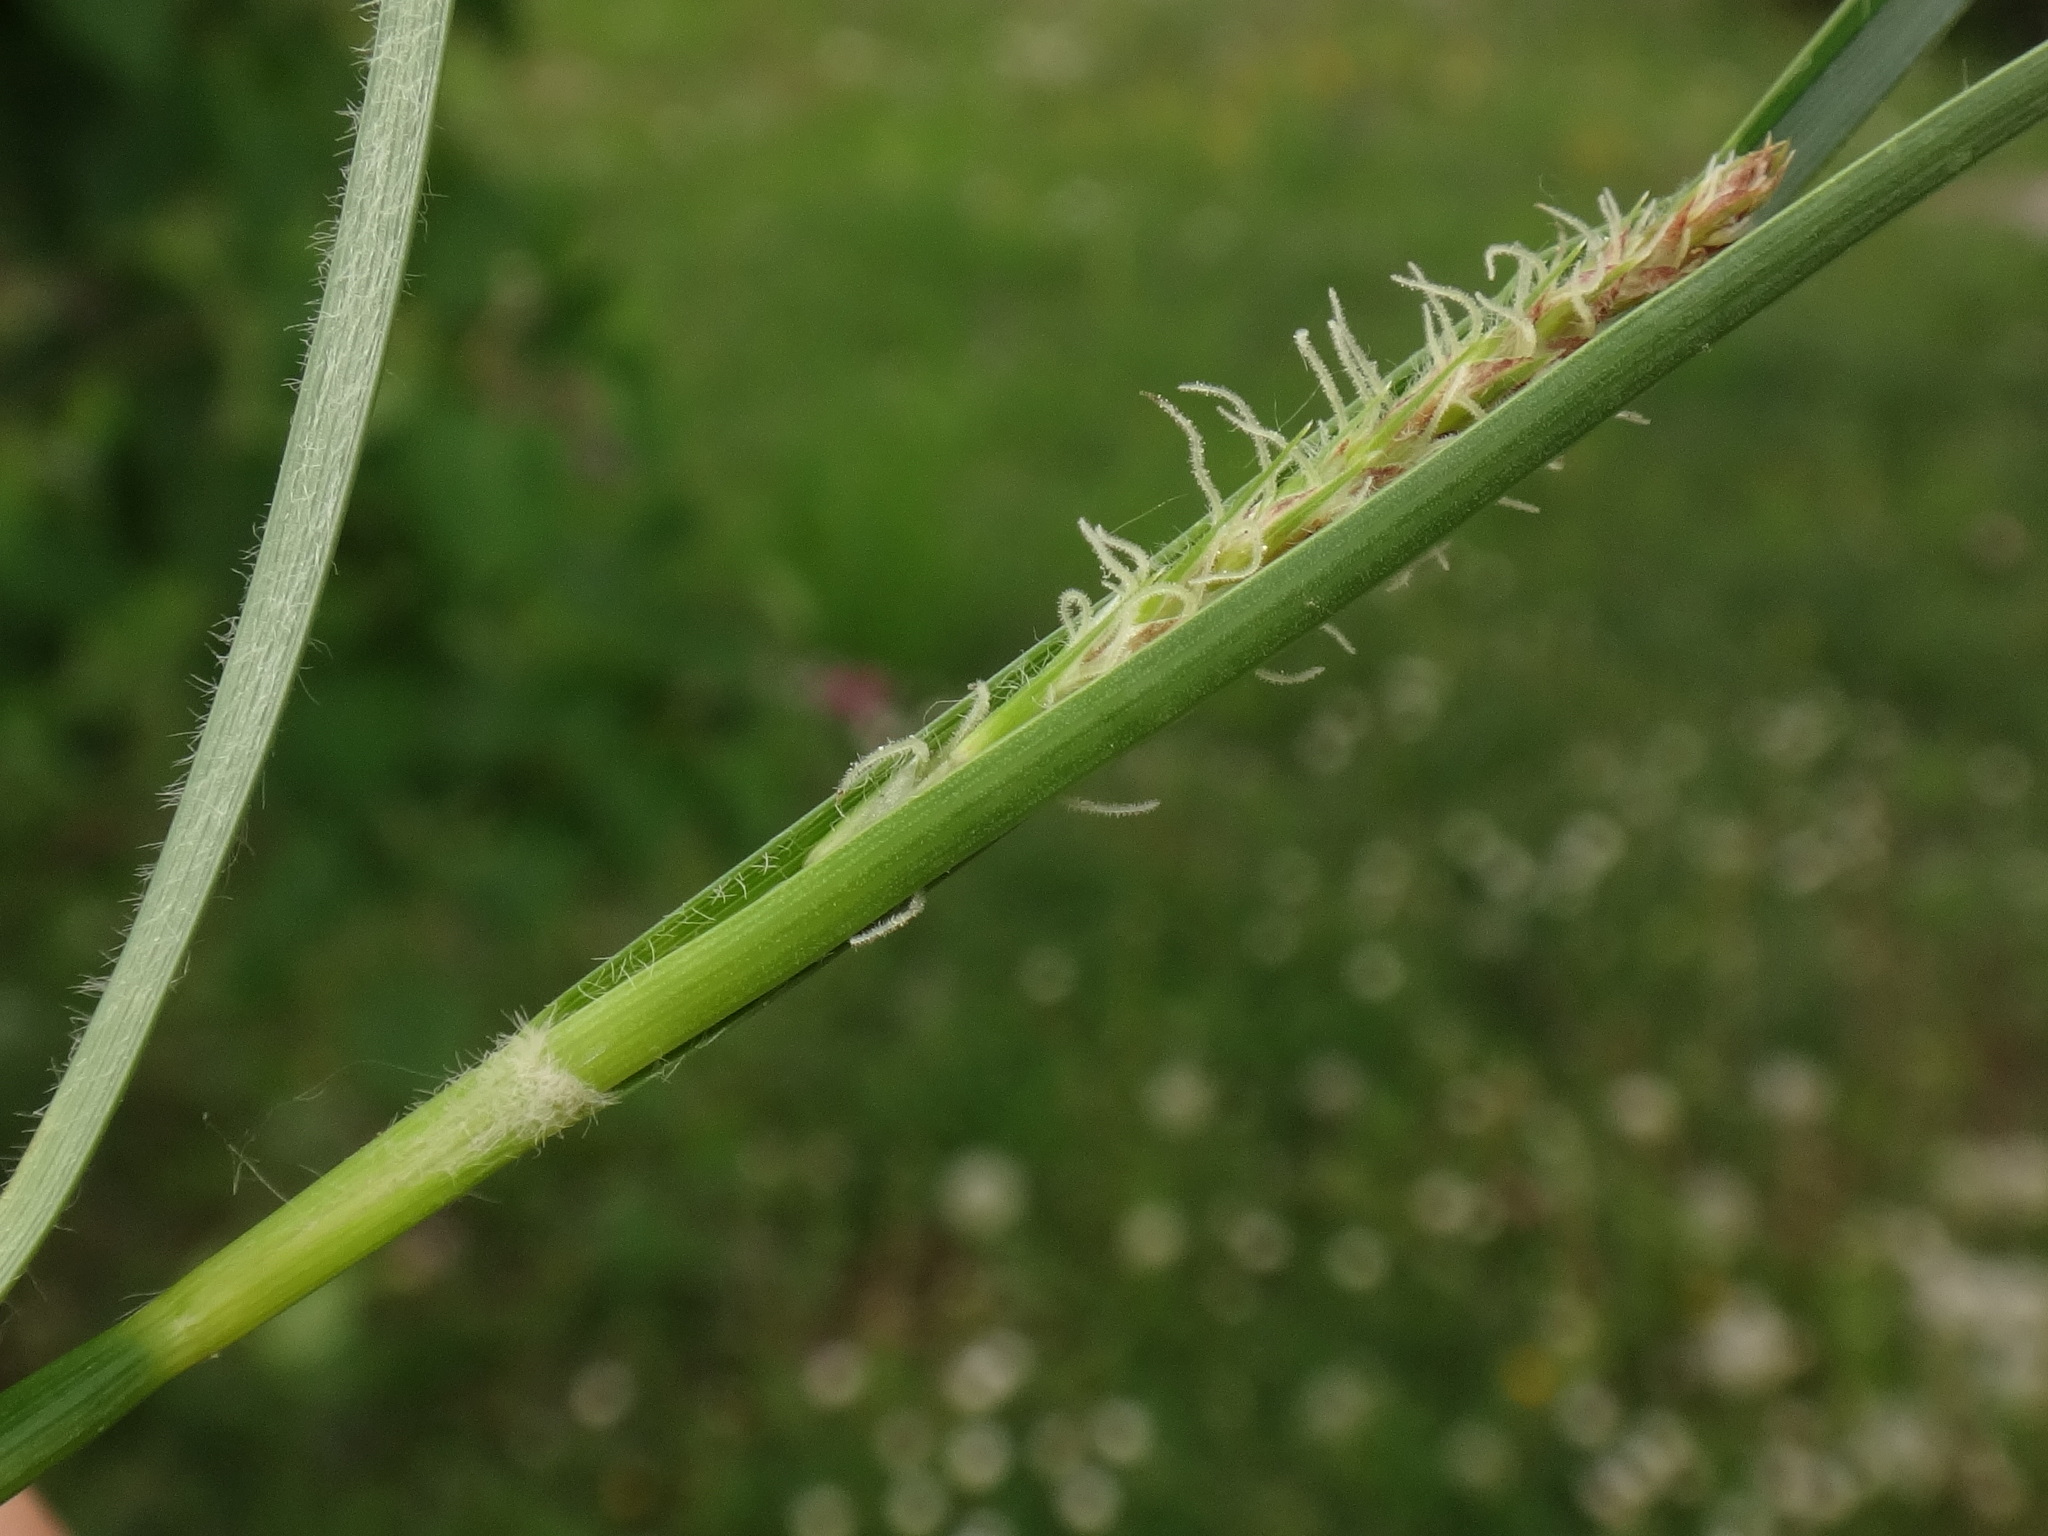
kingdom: Plantae
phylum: Tracheophyta
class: Liliopsida
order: Poales
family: Cyperaceae
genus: Carex
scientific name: Carex hirta
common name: Hairy sedge
